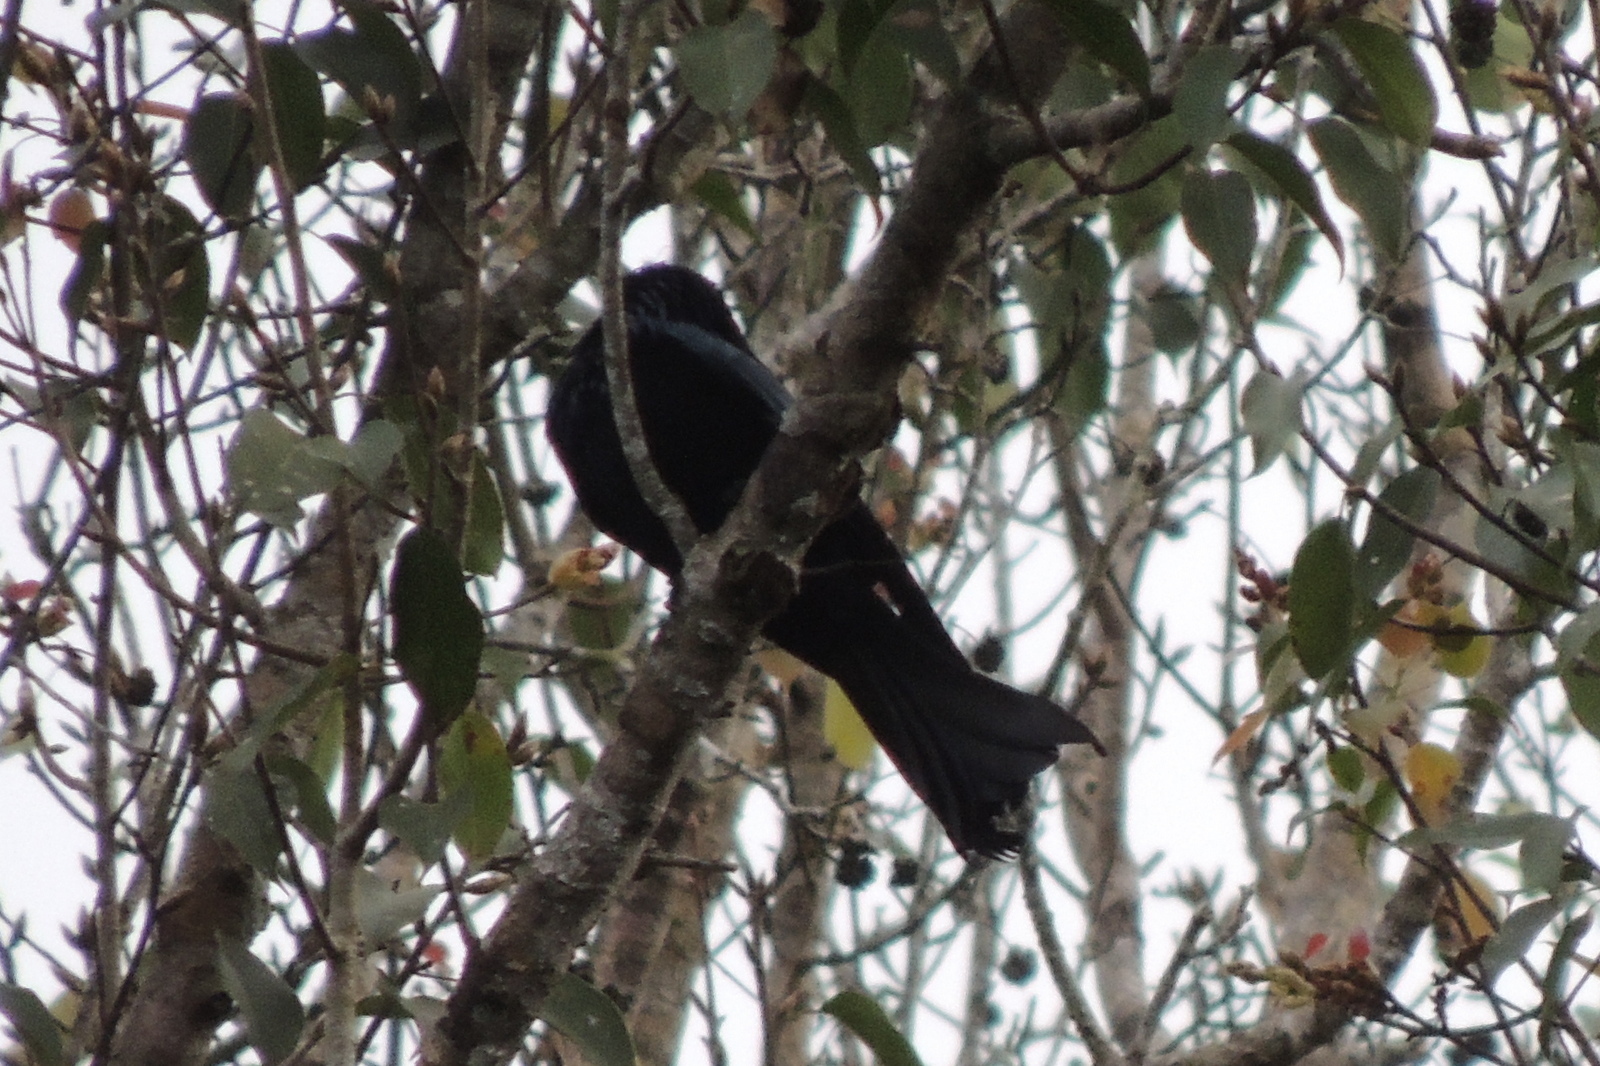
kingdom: Animalia
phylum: Chordata
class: Aves
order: Passeriformes
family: Dicruridae
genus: Dicrurus
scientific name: Dicrurus hottentottus
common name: Hair-crested drongo
